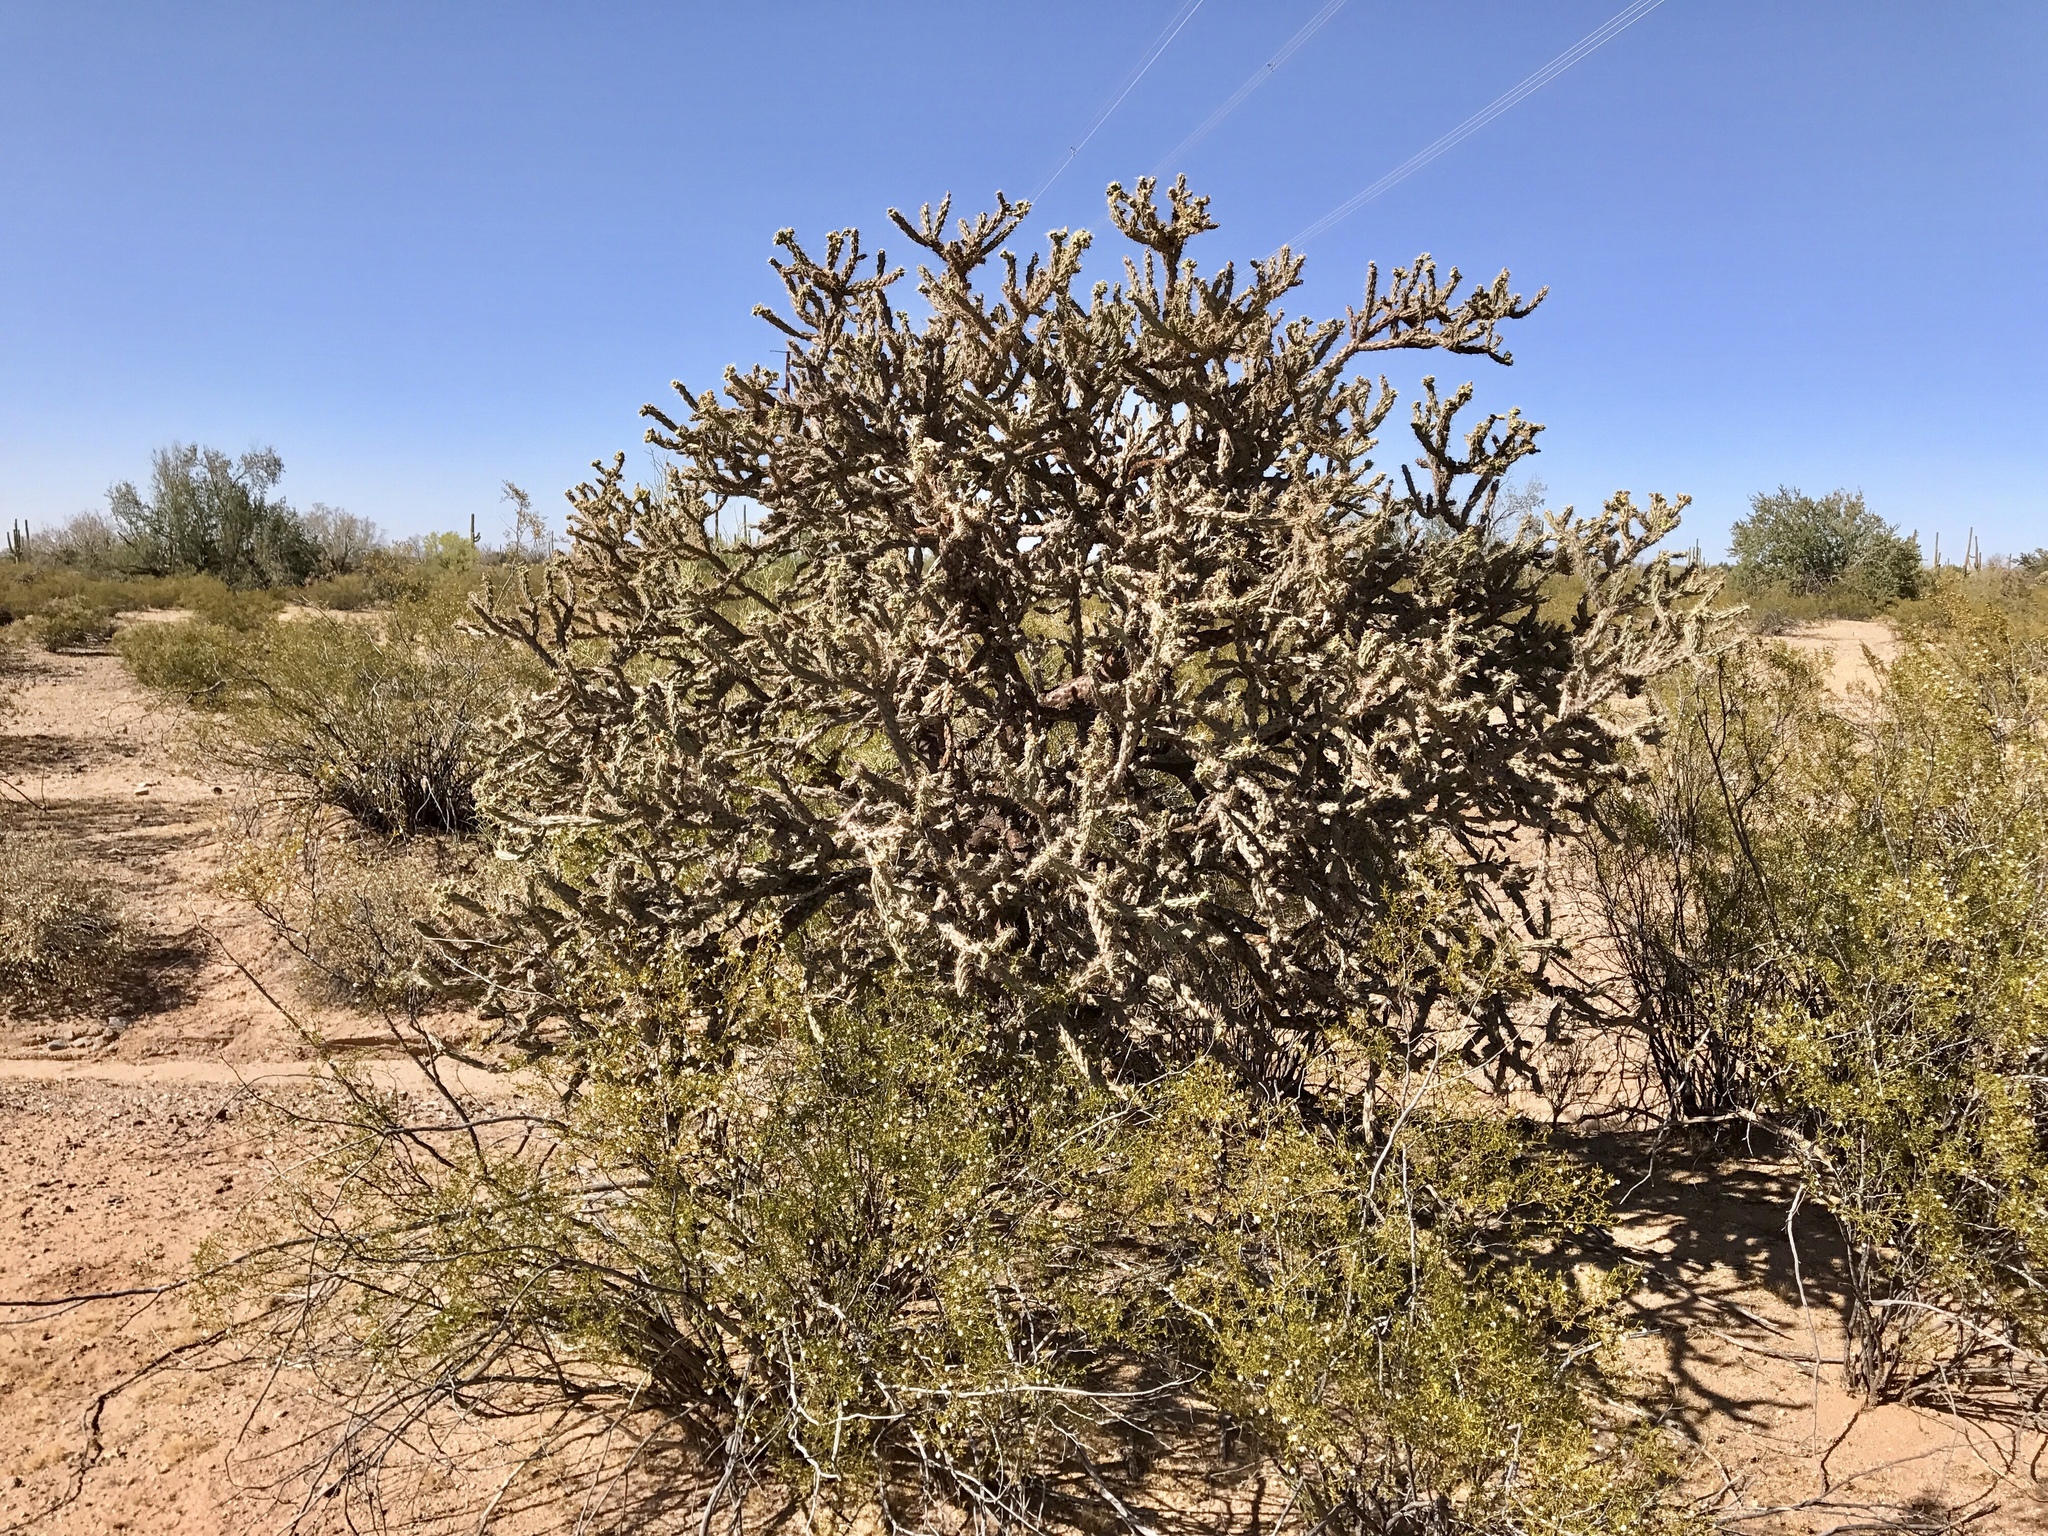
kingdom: Plantae
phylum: Tracheophyta
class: Magnoliopsida
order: Caryophyllales
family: Cactaceae
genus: Cylindropuntia
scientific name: Cylindropuntia acanthocarpa
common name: Buckhorn cholla
